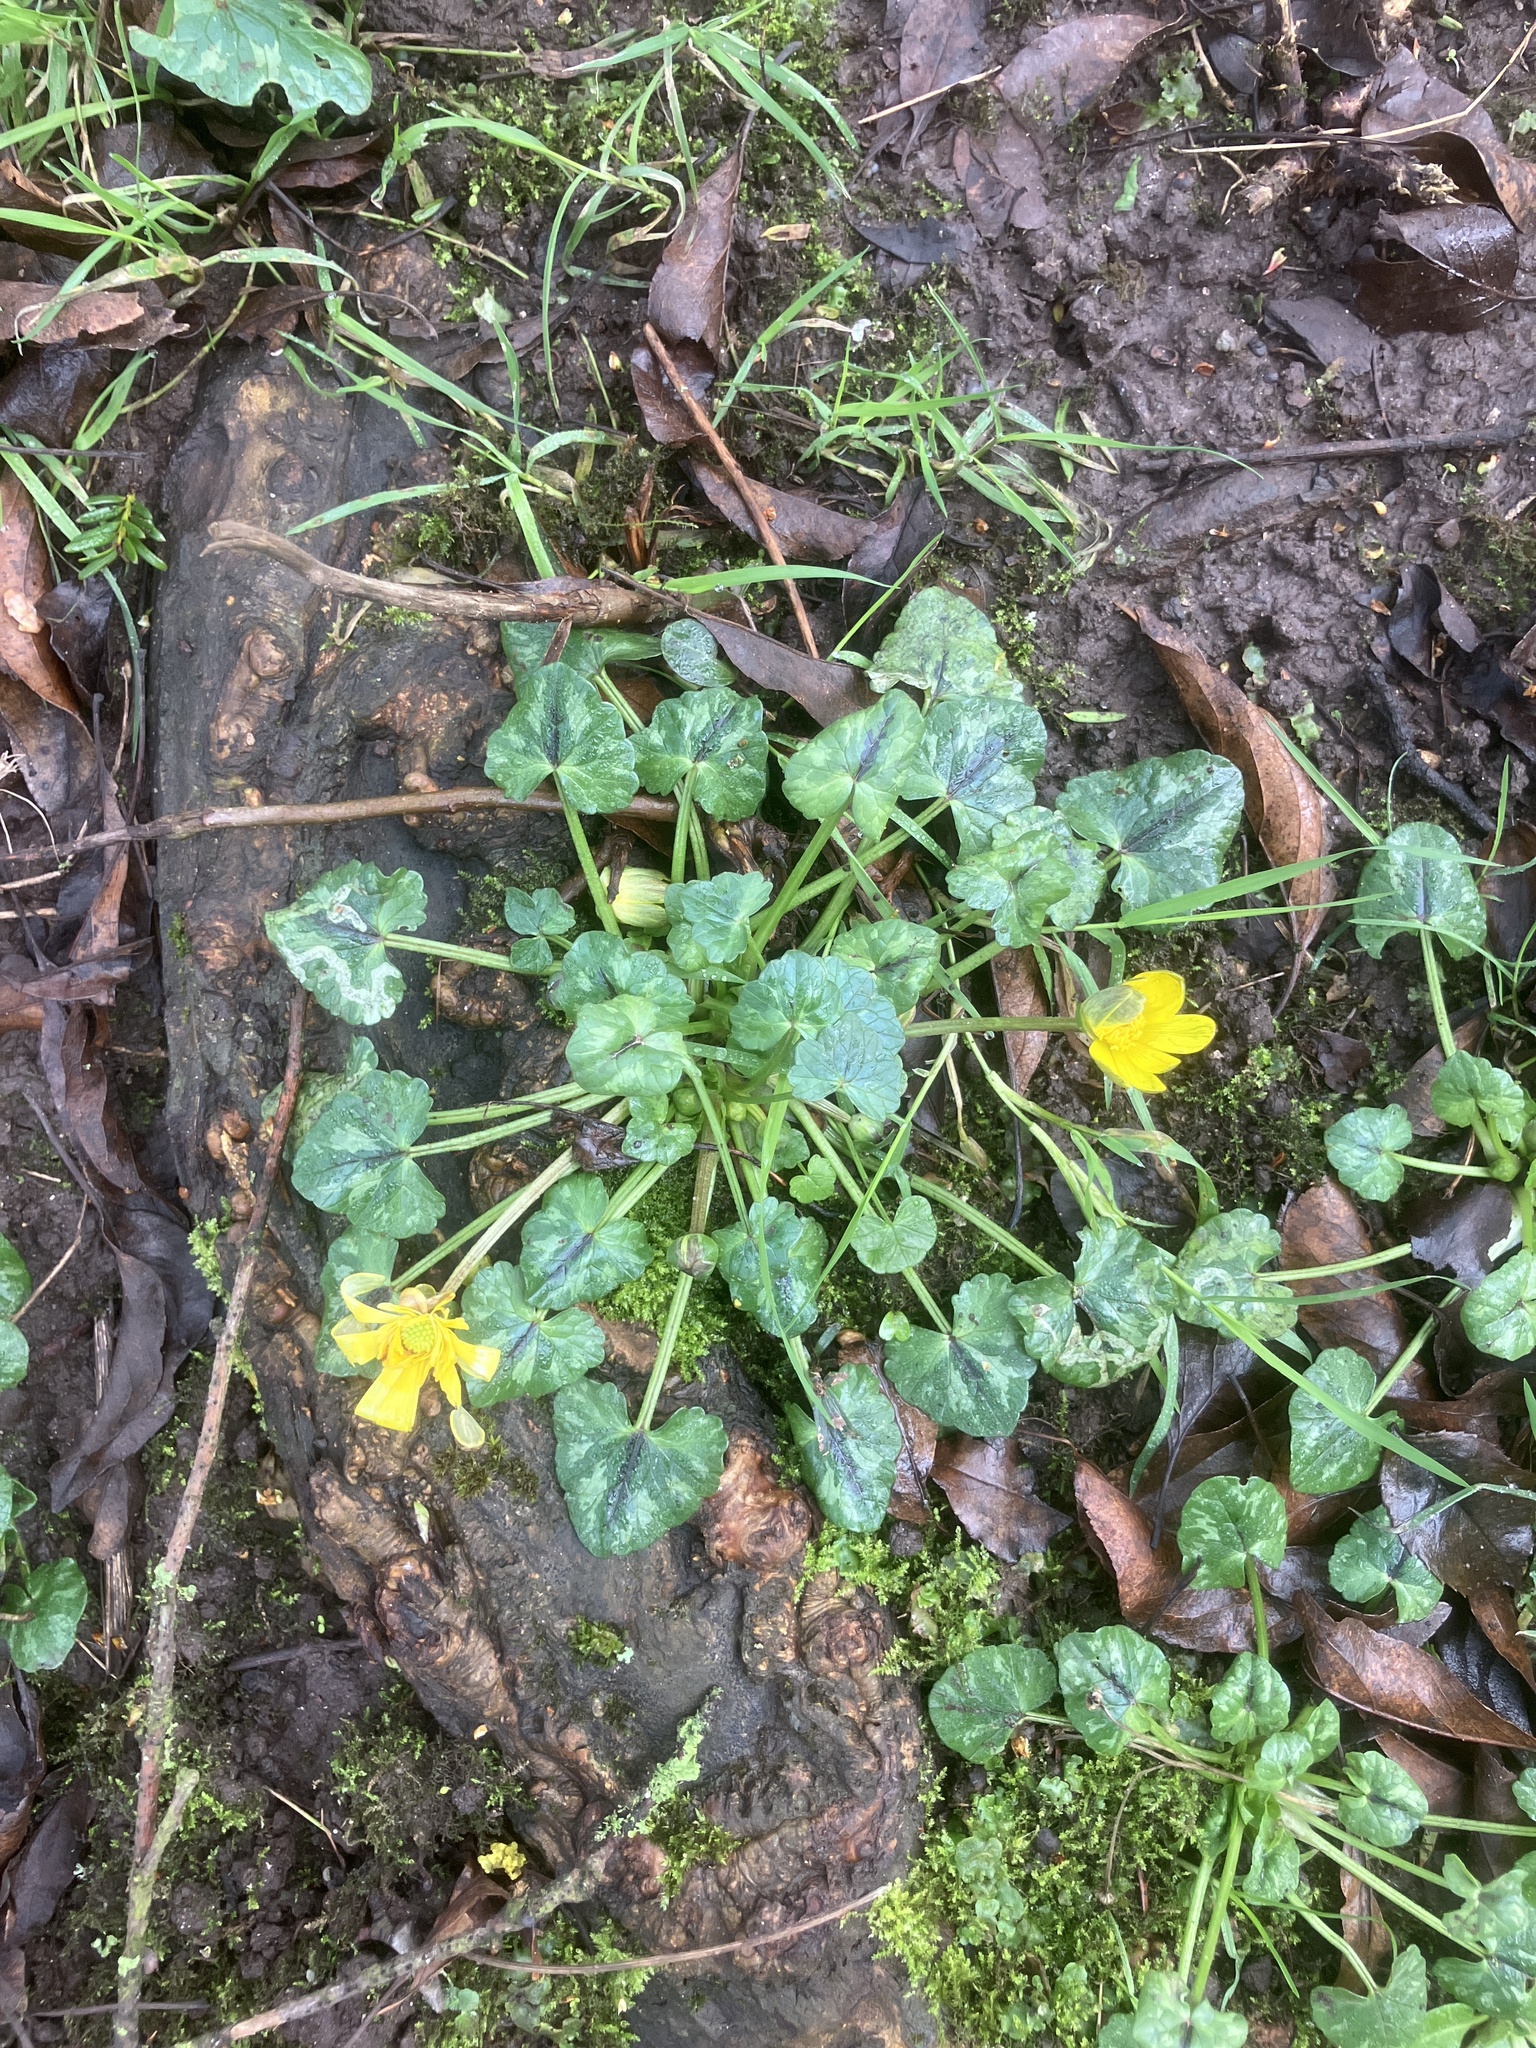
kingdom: Plantae
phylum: Tracheophyta
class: Magnoliopsida
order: Ranunculales
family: Ranunculaceae
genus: Ficaria
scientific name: Ficaria verna
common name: Lesser celandine
